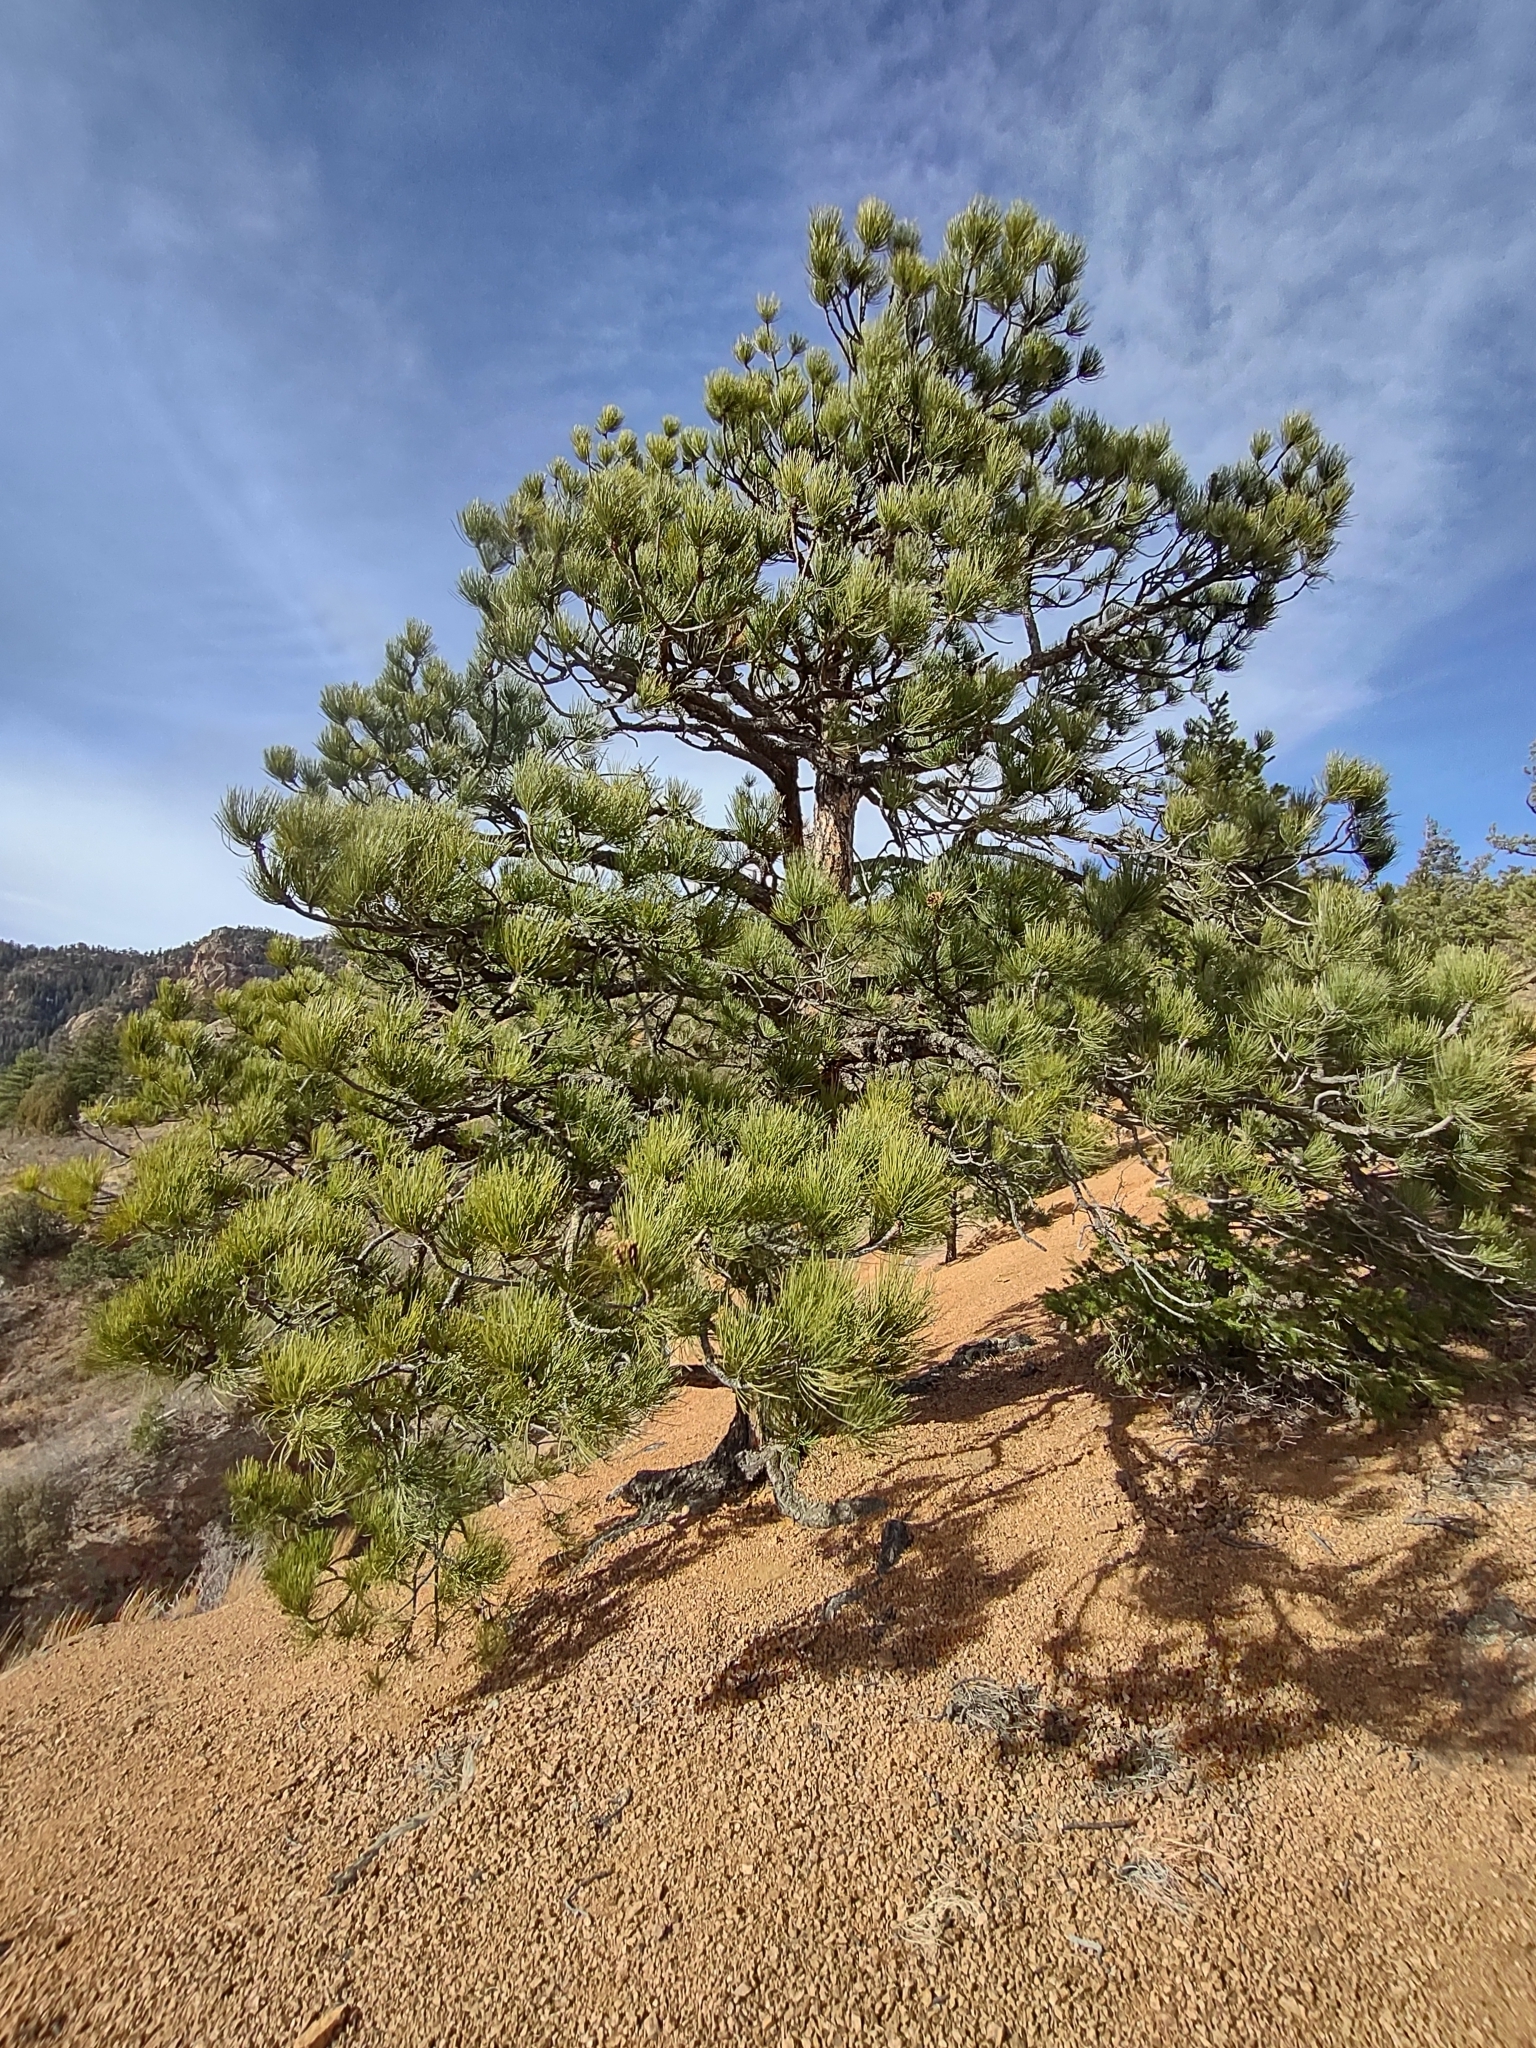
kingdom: Plantae
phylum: Tracheophyta
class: Pinopsida
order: Pinales
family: Pinaceae
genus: Pinus
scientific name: Pinus ponderosa
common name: Western yellow-pine
